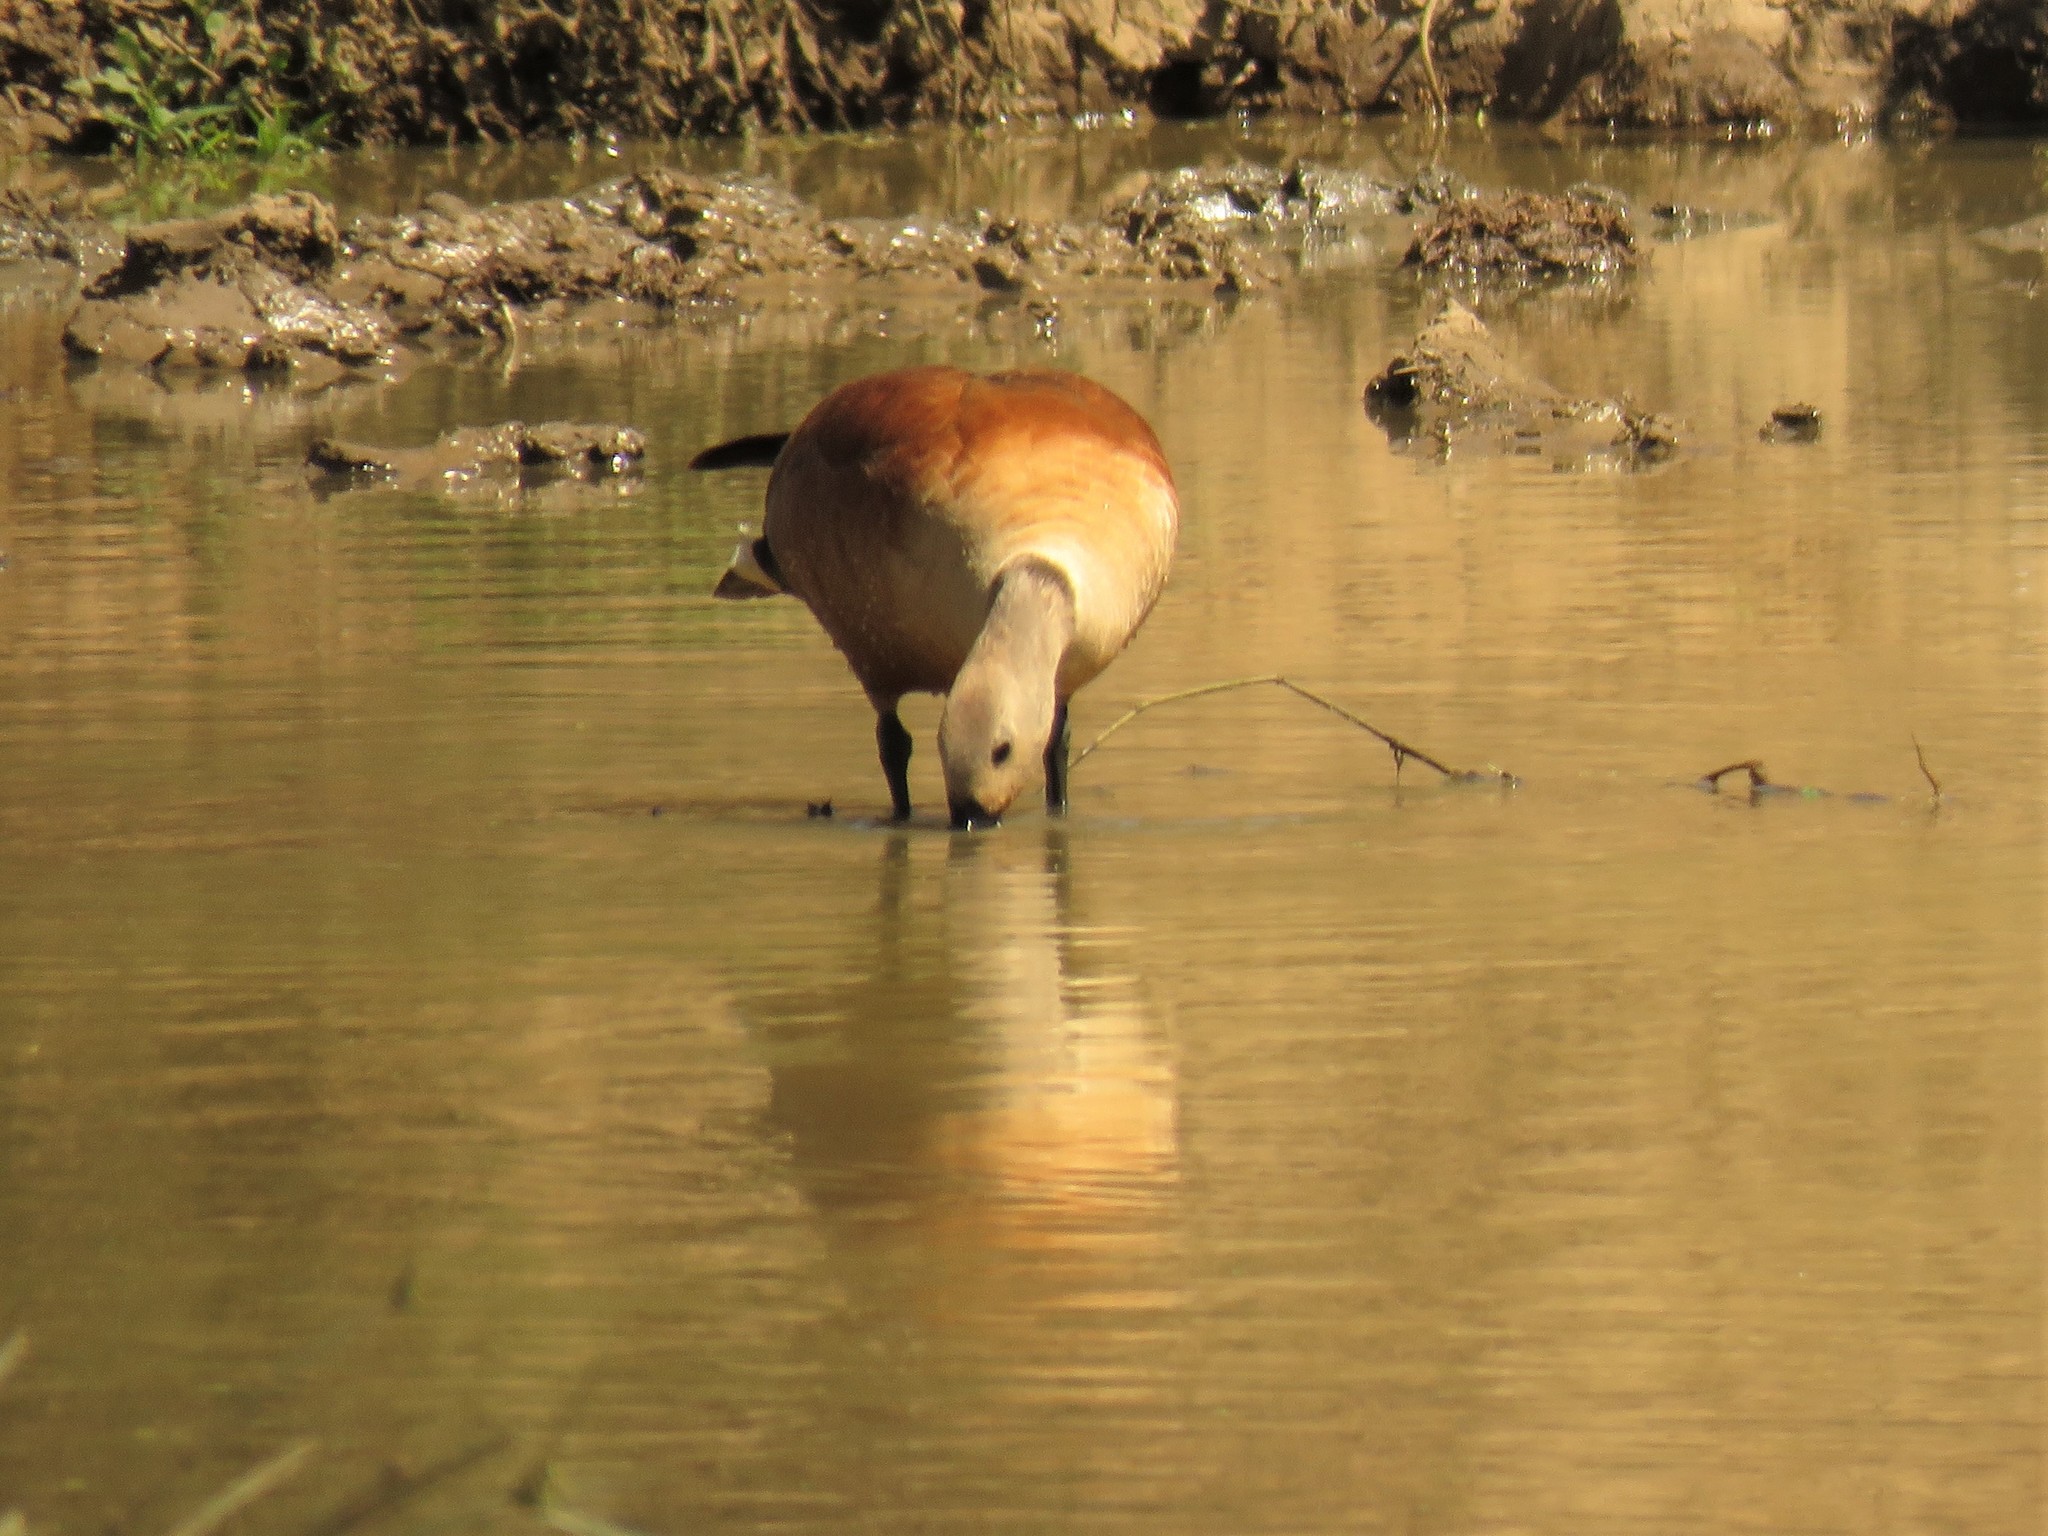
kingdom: Animalia
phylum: Chordata
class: Aves
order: Anseriformes
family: Anatidae
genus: Tadorna
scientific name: Tadorna cana
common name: South african shelduck
